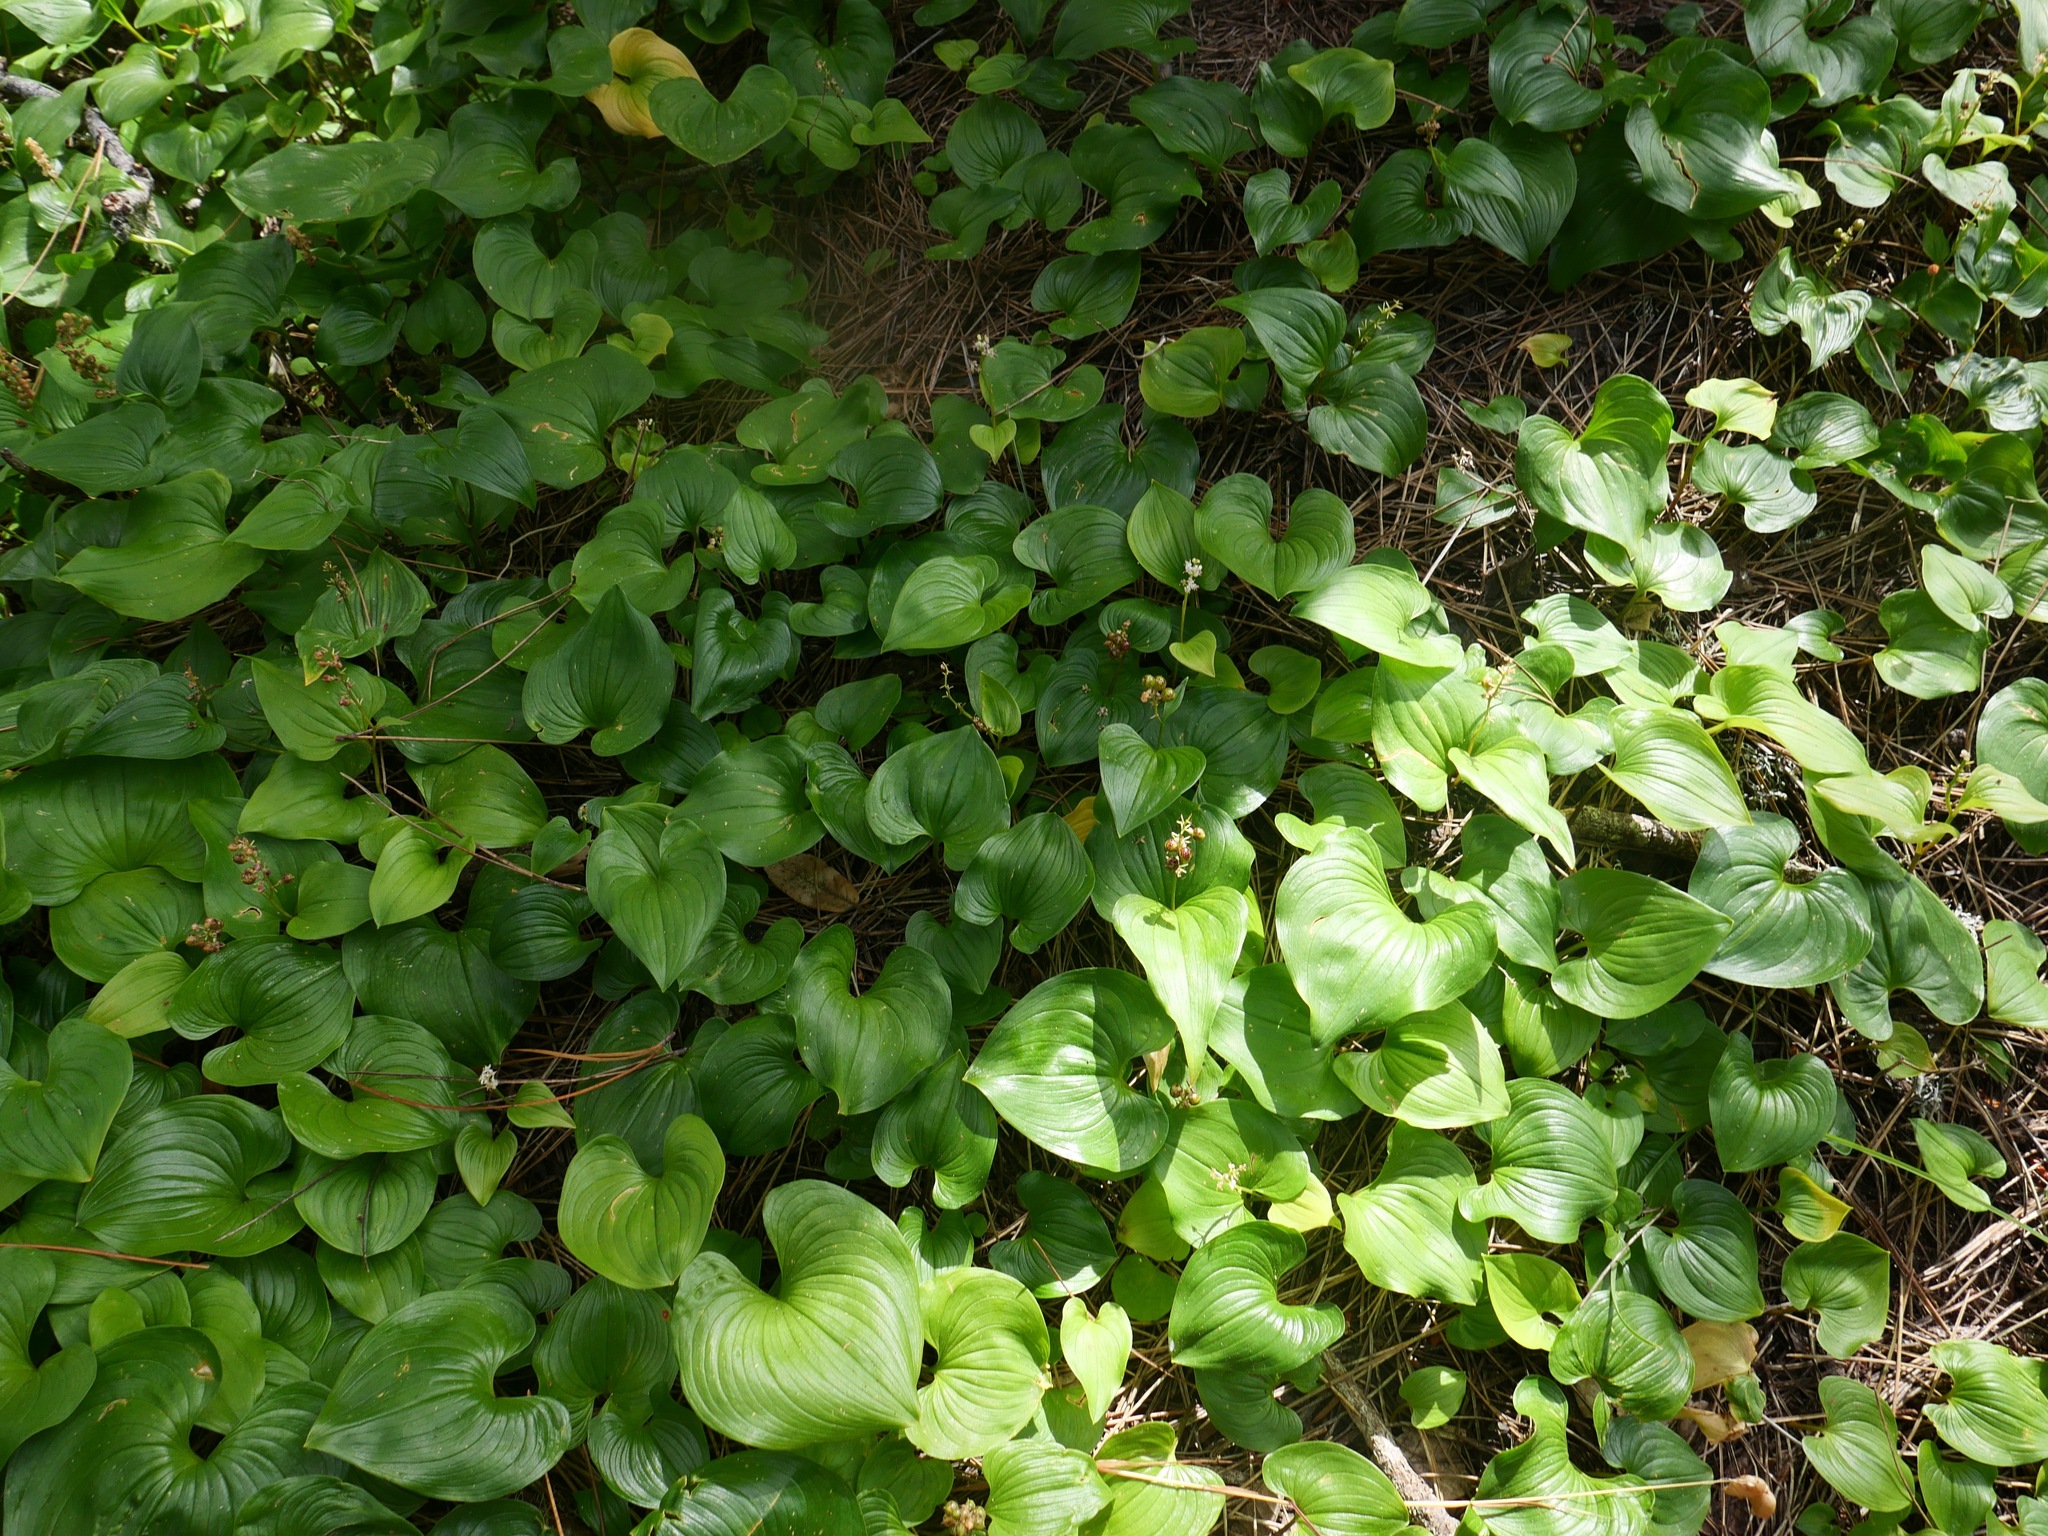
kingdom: Plantae
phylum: Tracheophyta
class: Liliopsida
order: Asparagales
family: Asparagaceae
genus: Maianthemum
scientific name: Maianthemum dilatatum
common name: False lily-of-the-valley
